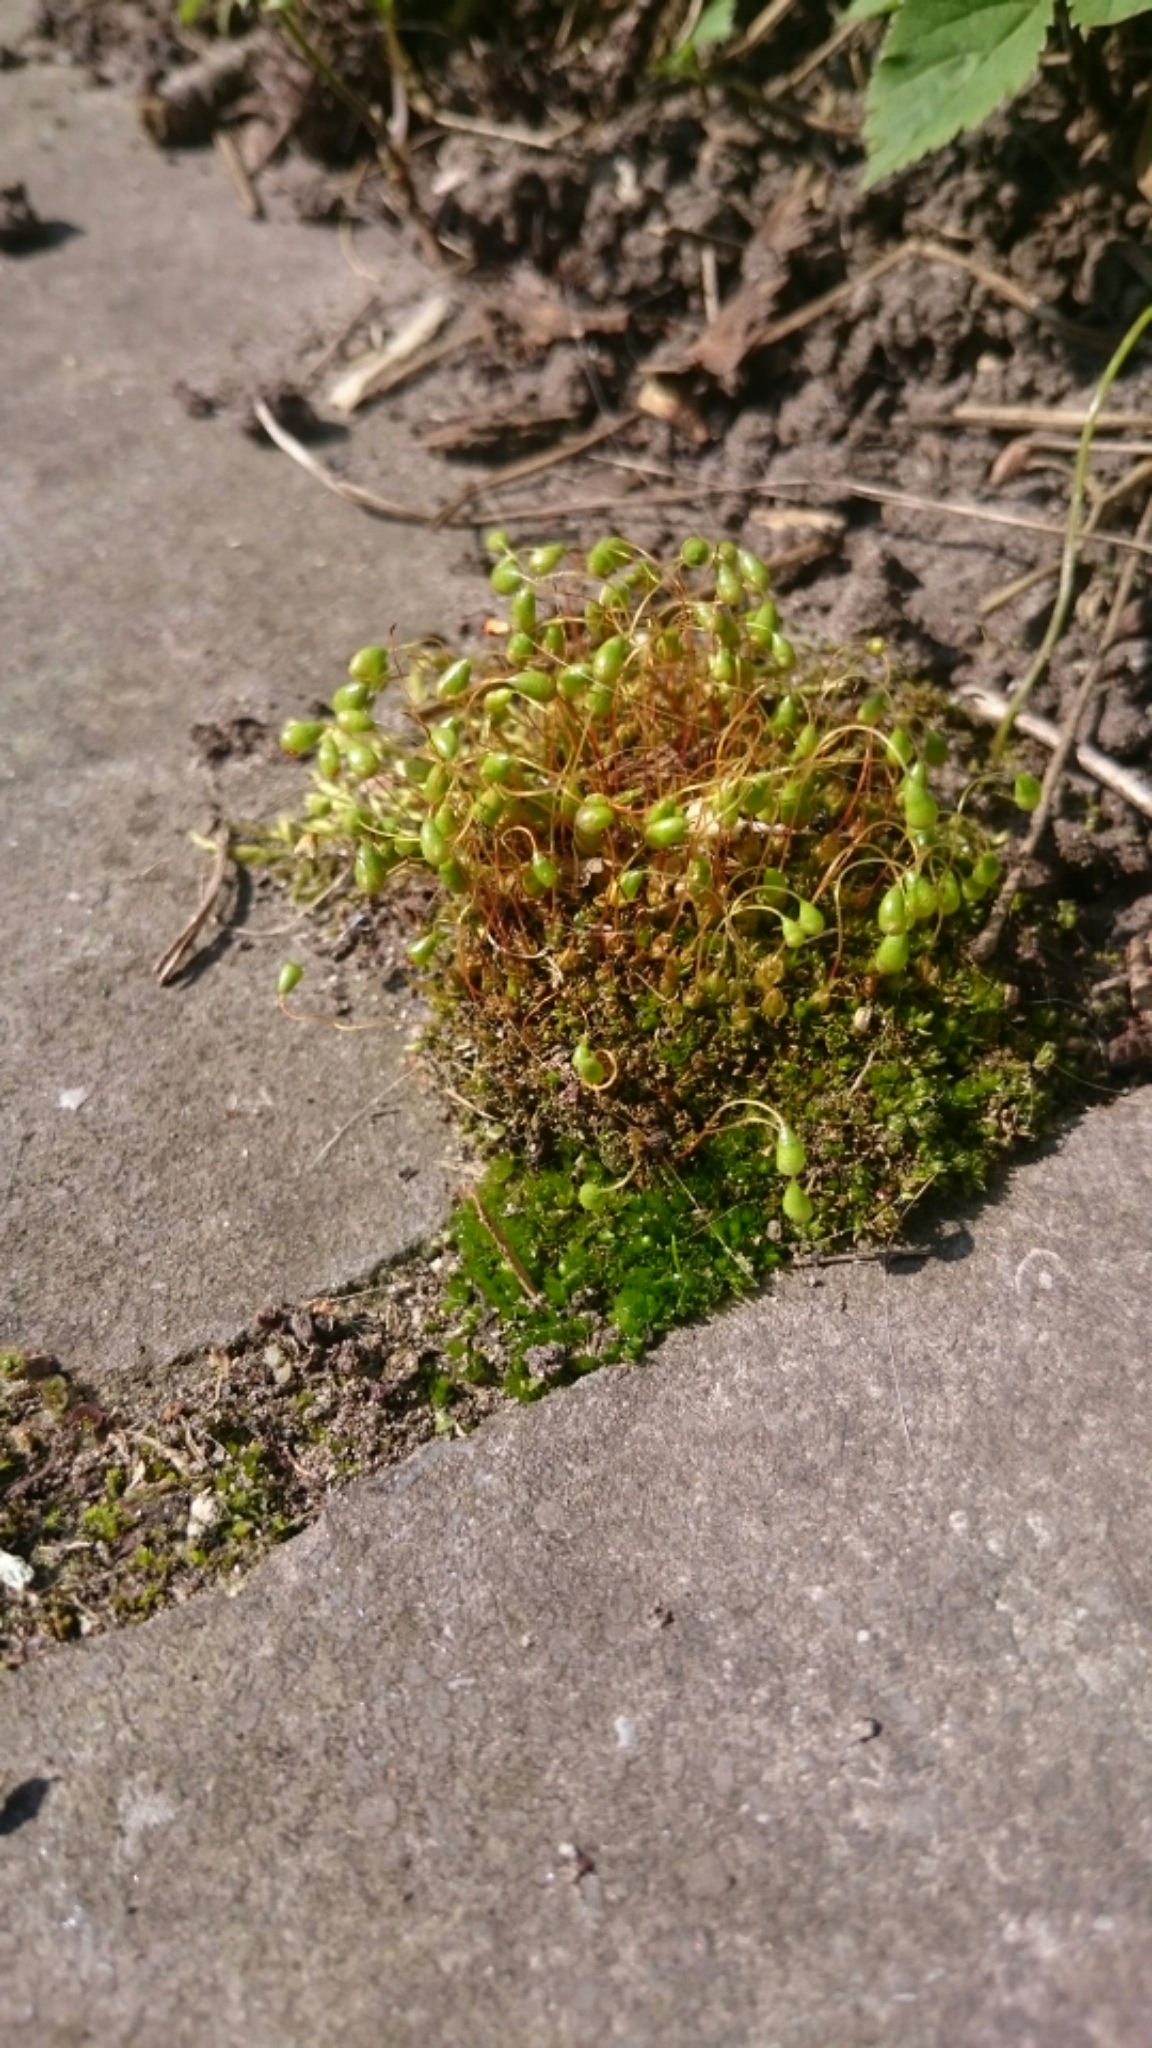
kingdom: Plantae
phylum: Bryophyta
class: Bryopsida
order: Funariales
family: Funariaceae
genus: Funaria
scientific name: Funaria hygrometrica
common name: Common cord moss
